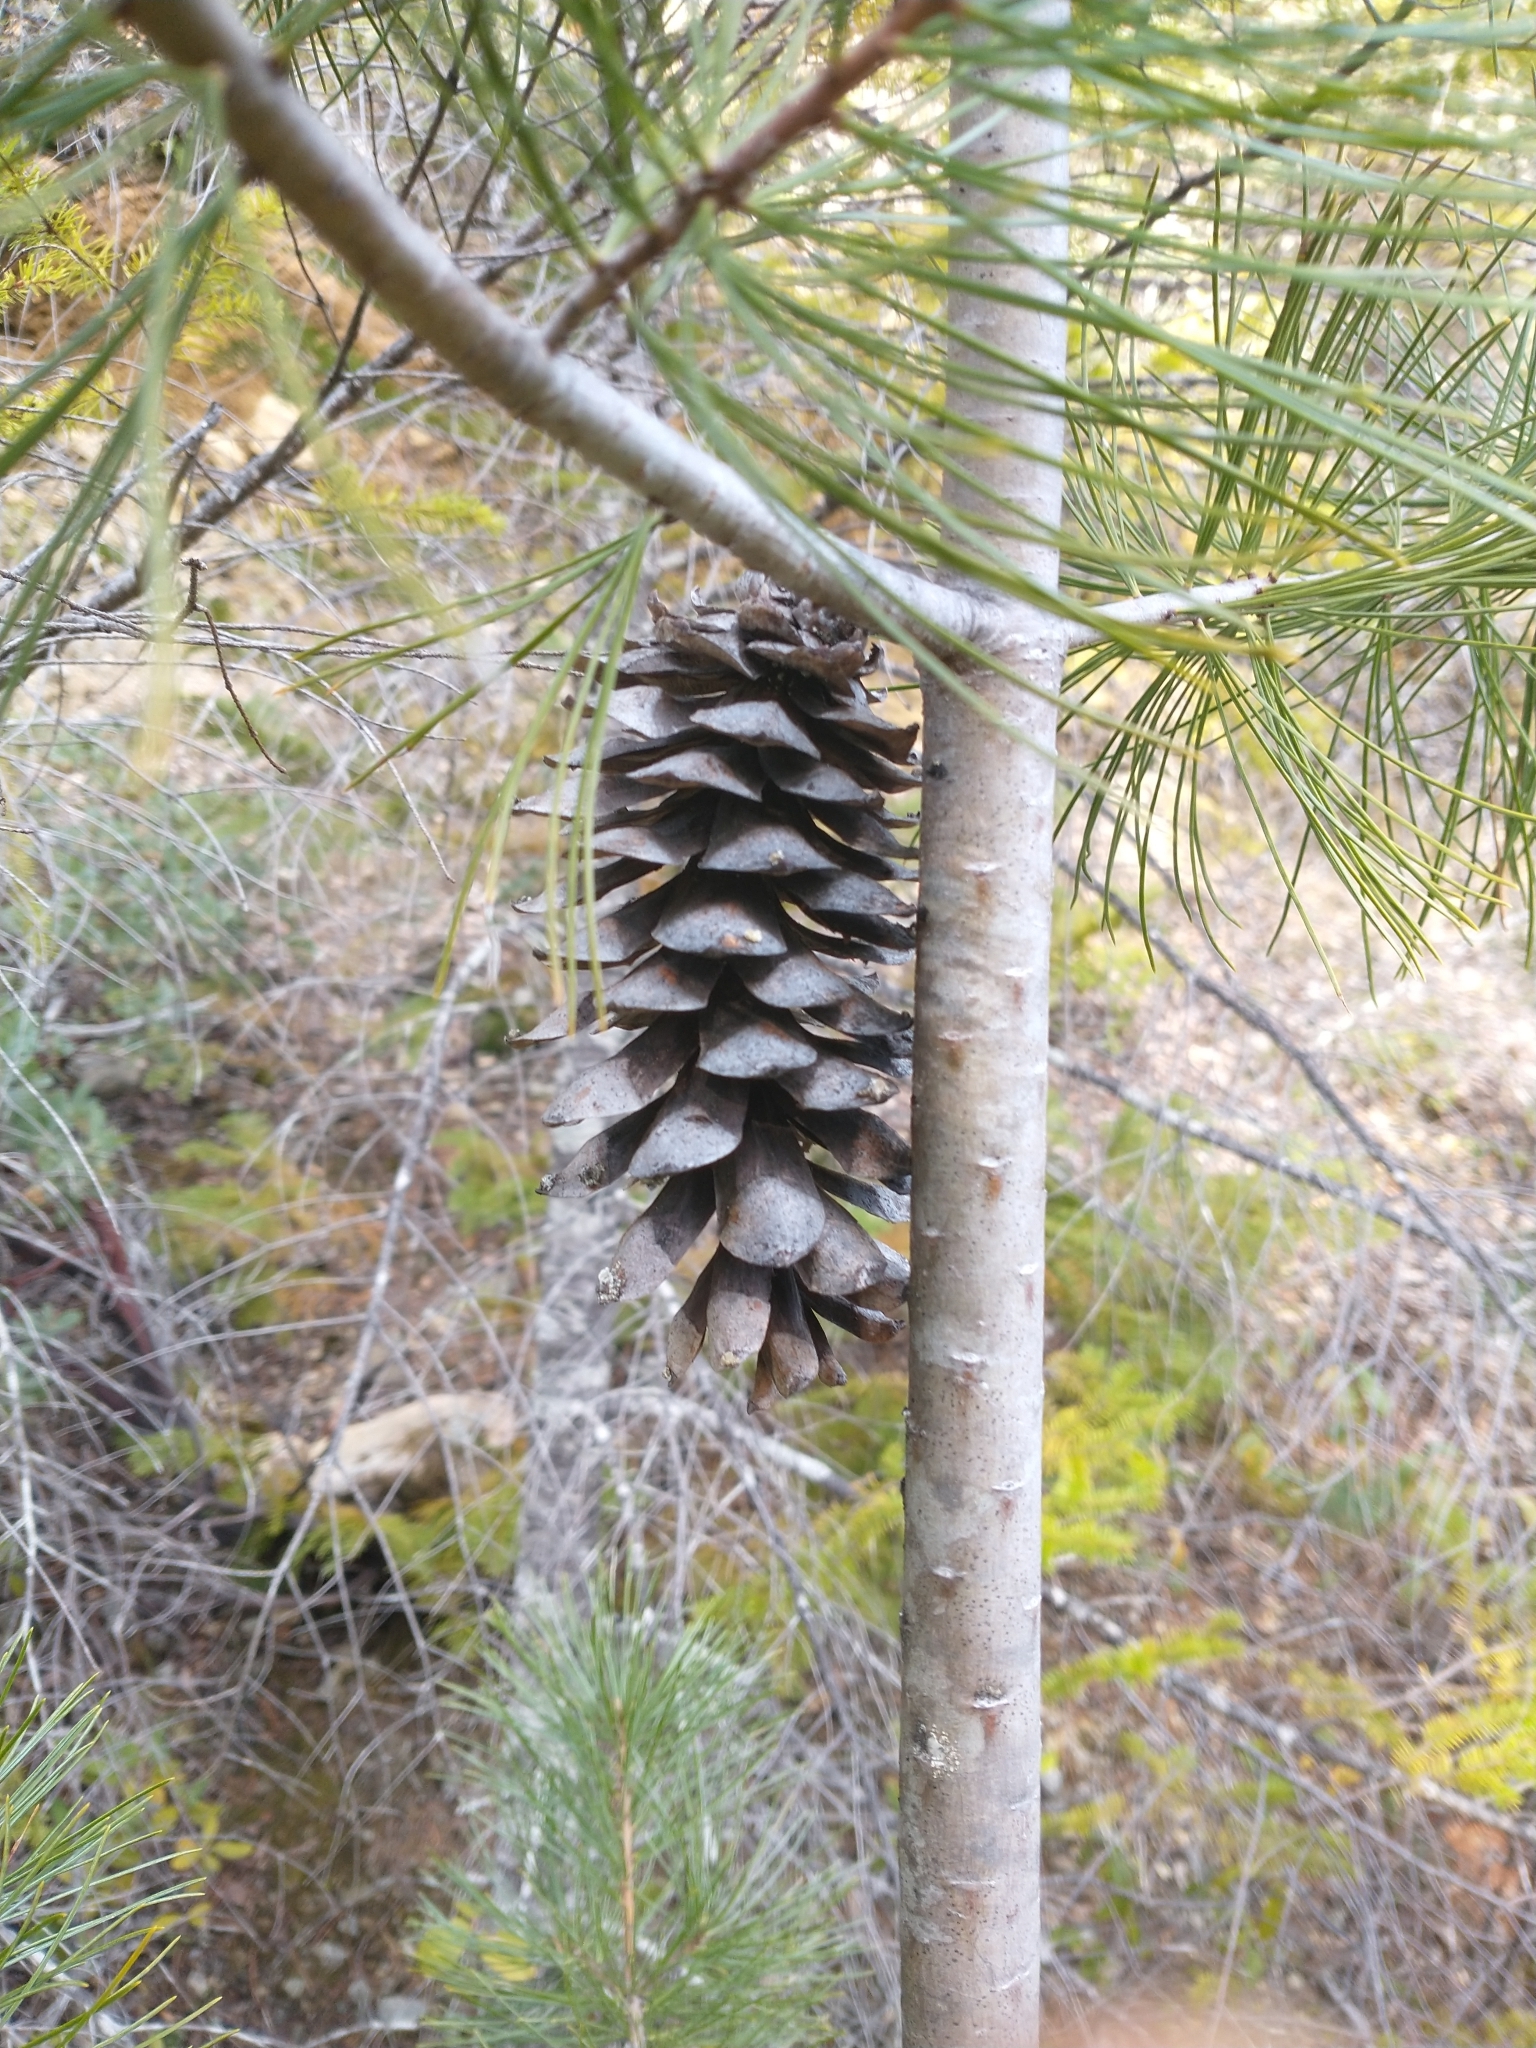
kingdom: Plantae
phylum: Tracheophyta
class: Pinopsida
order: Pinales
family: Pinaceae
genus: Pinus
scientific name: Pinus monticola
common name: Western white pine
